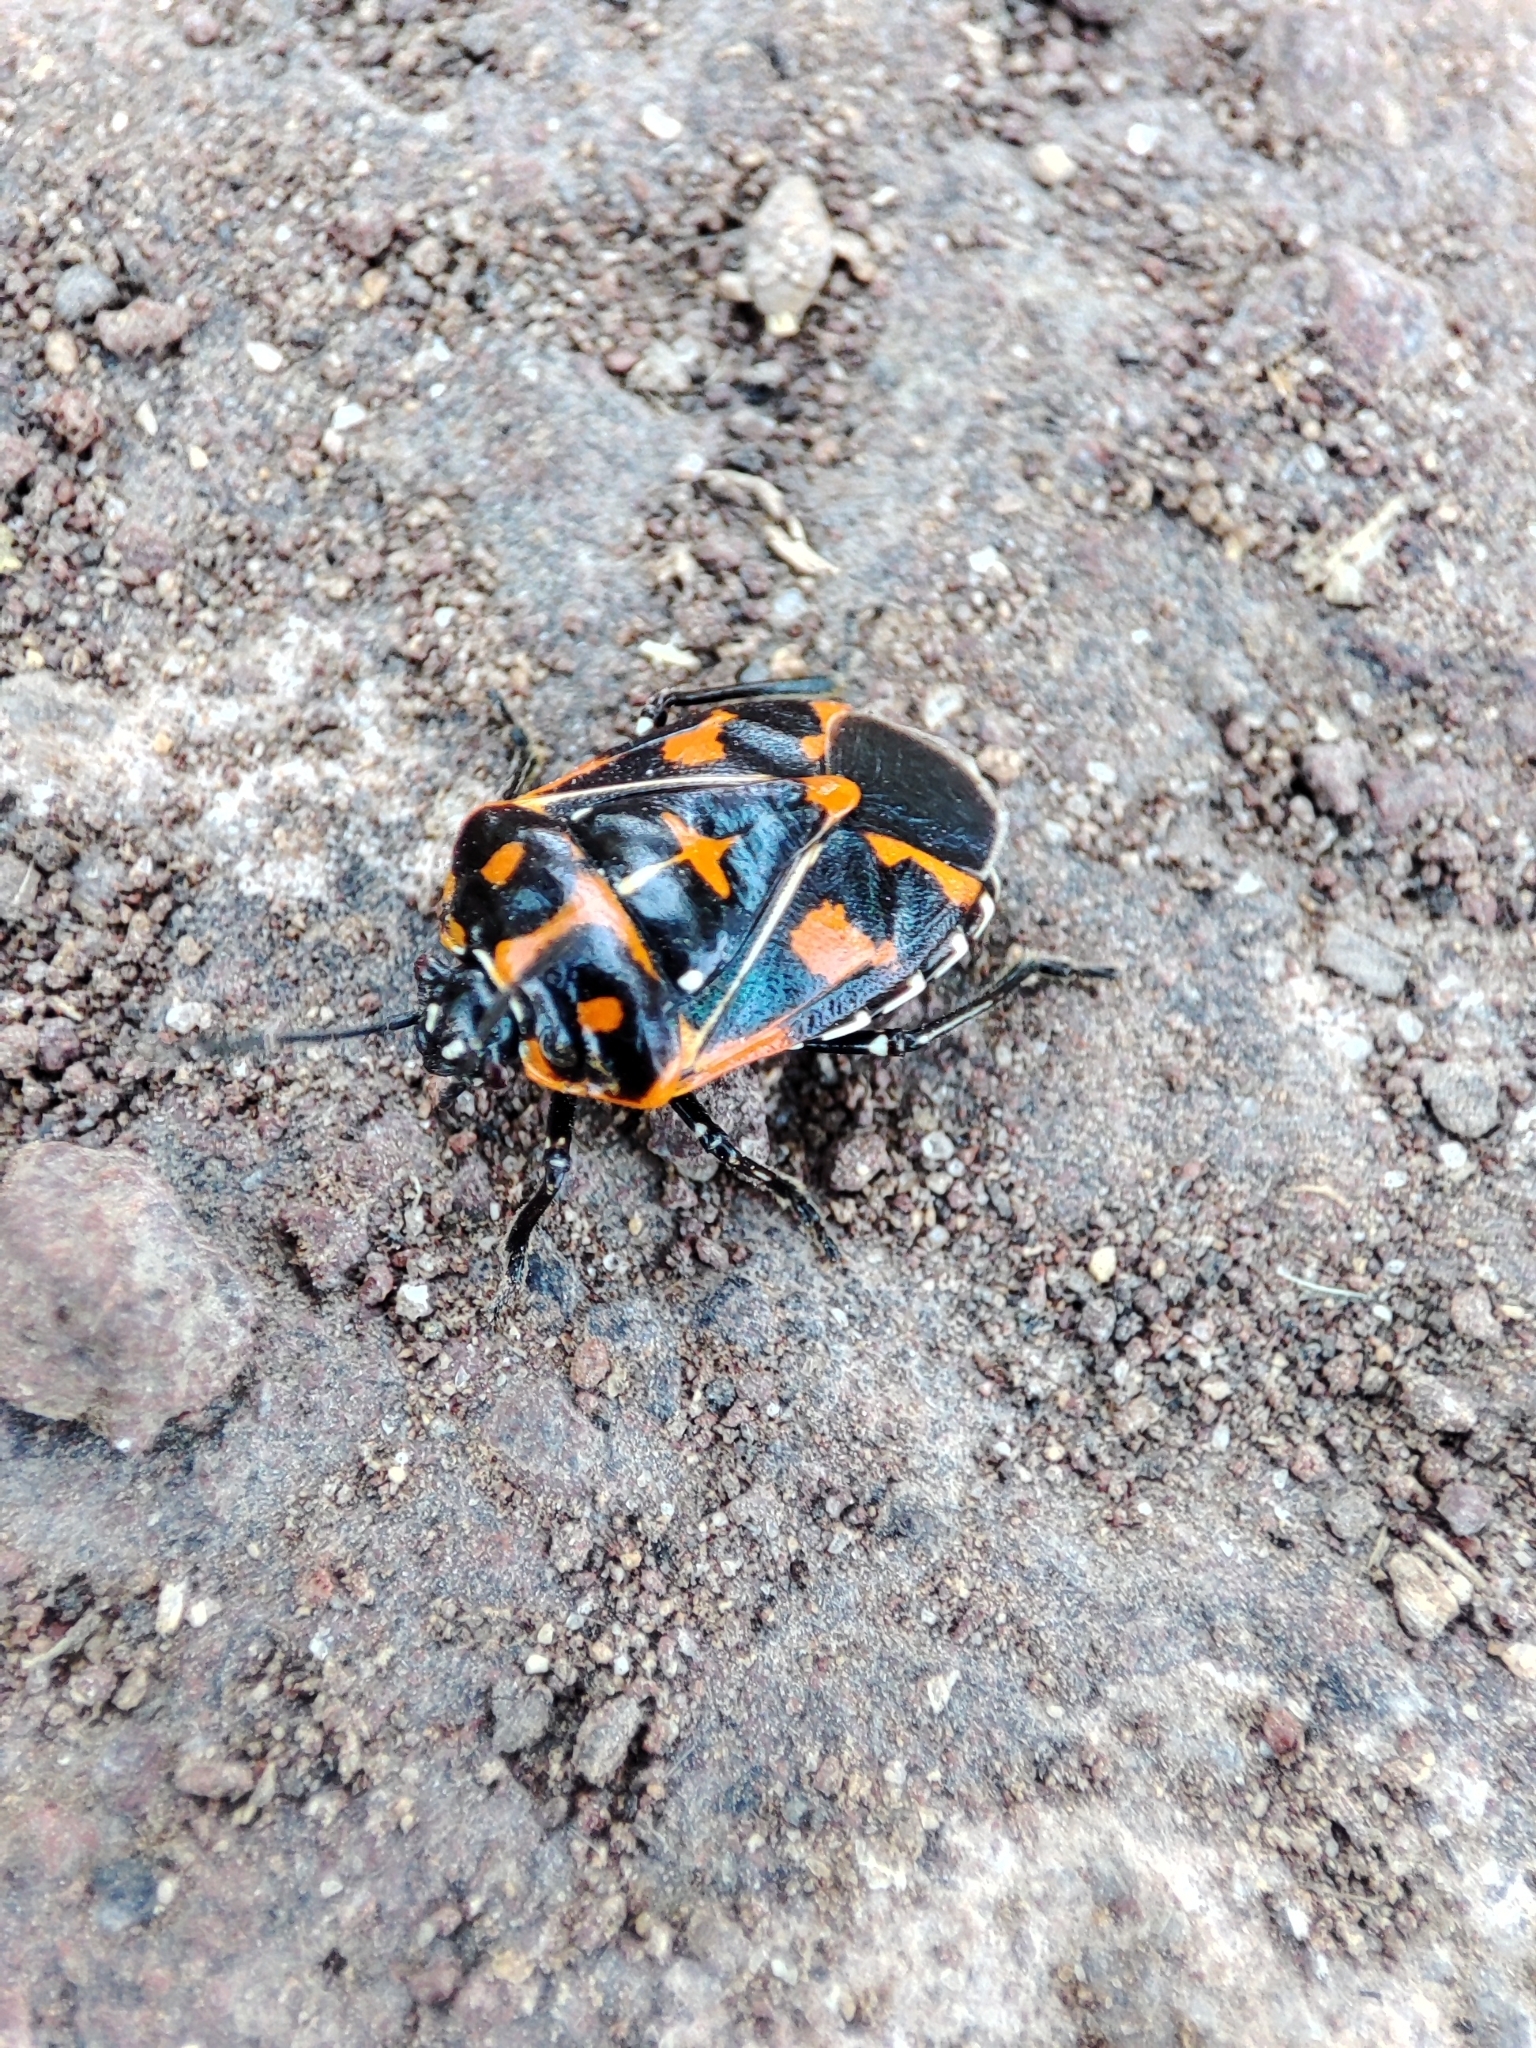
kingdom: Animalia
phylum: Arthropoda
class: Insecta
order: Hemiptera
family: Pentatomidae
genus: Murgantia
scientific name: Murgantia histrionica
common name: Harlequin bug
